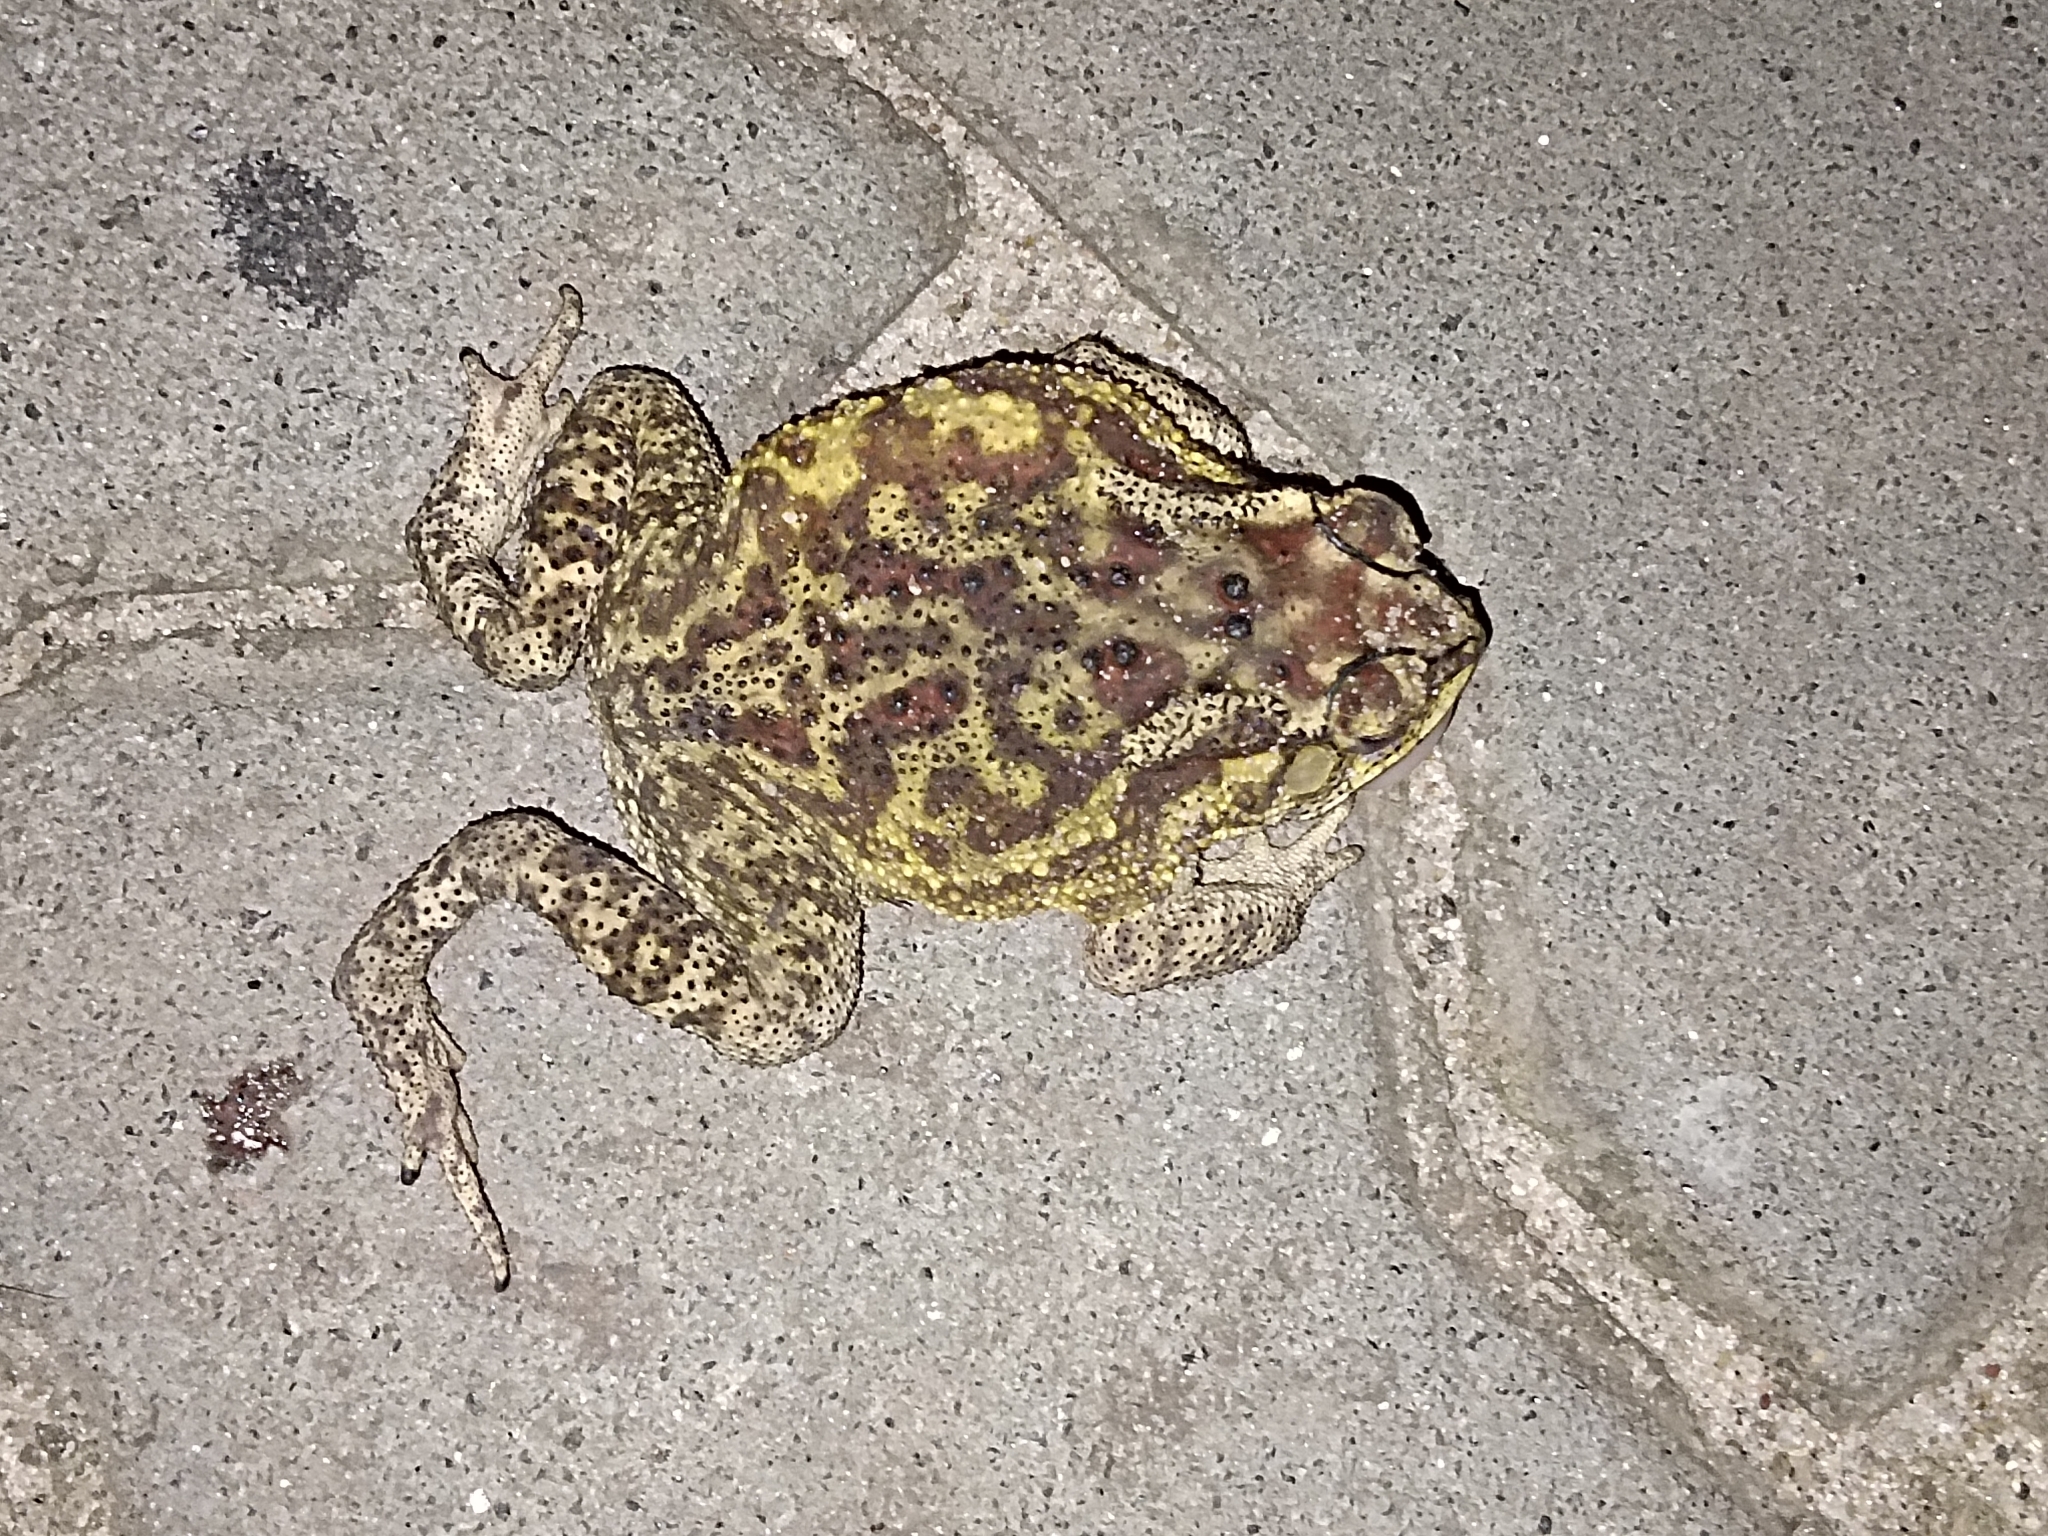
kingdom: Animalia
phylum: Chordata
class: Amphibia
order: Anura
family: Bufonidae
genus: Duttaphrynus
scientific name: Duttaphrynus melanostictus
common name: Common sunda toad
